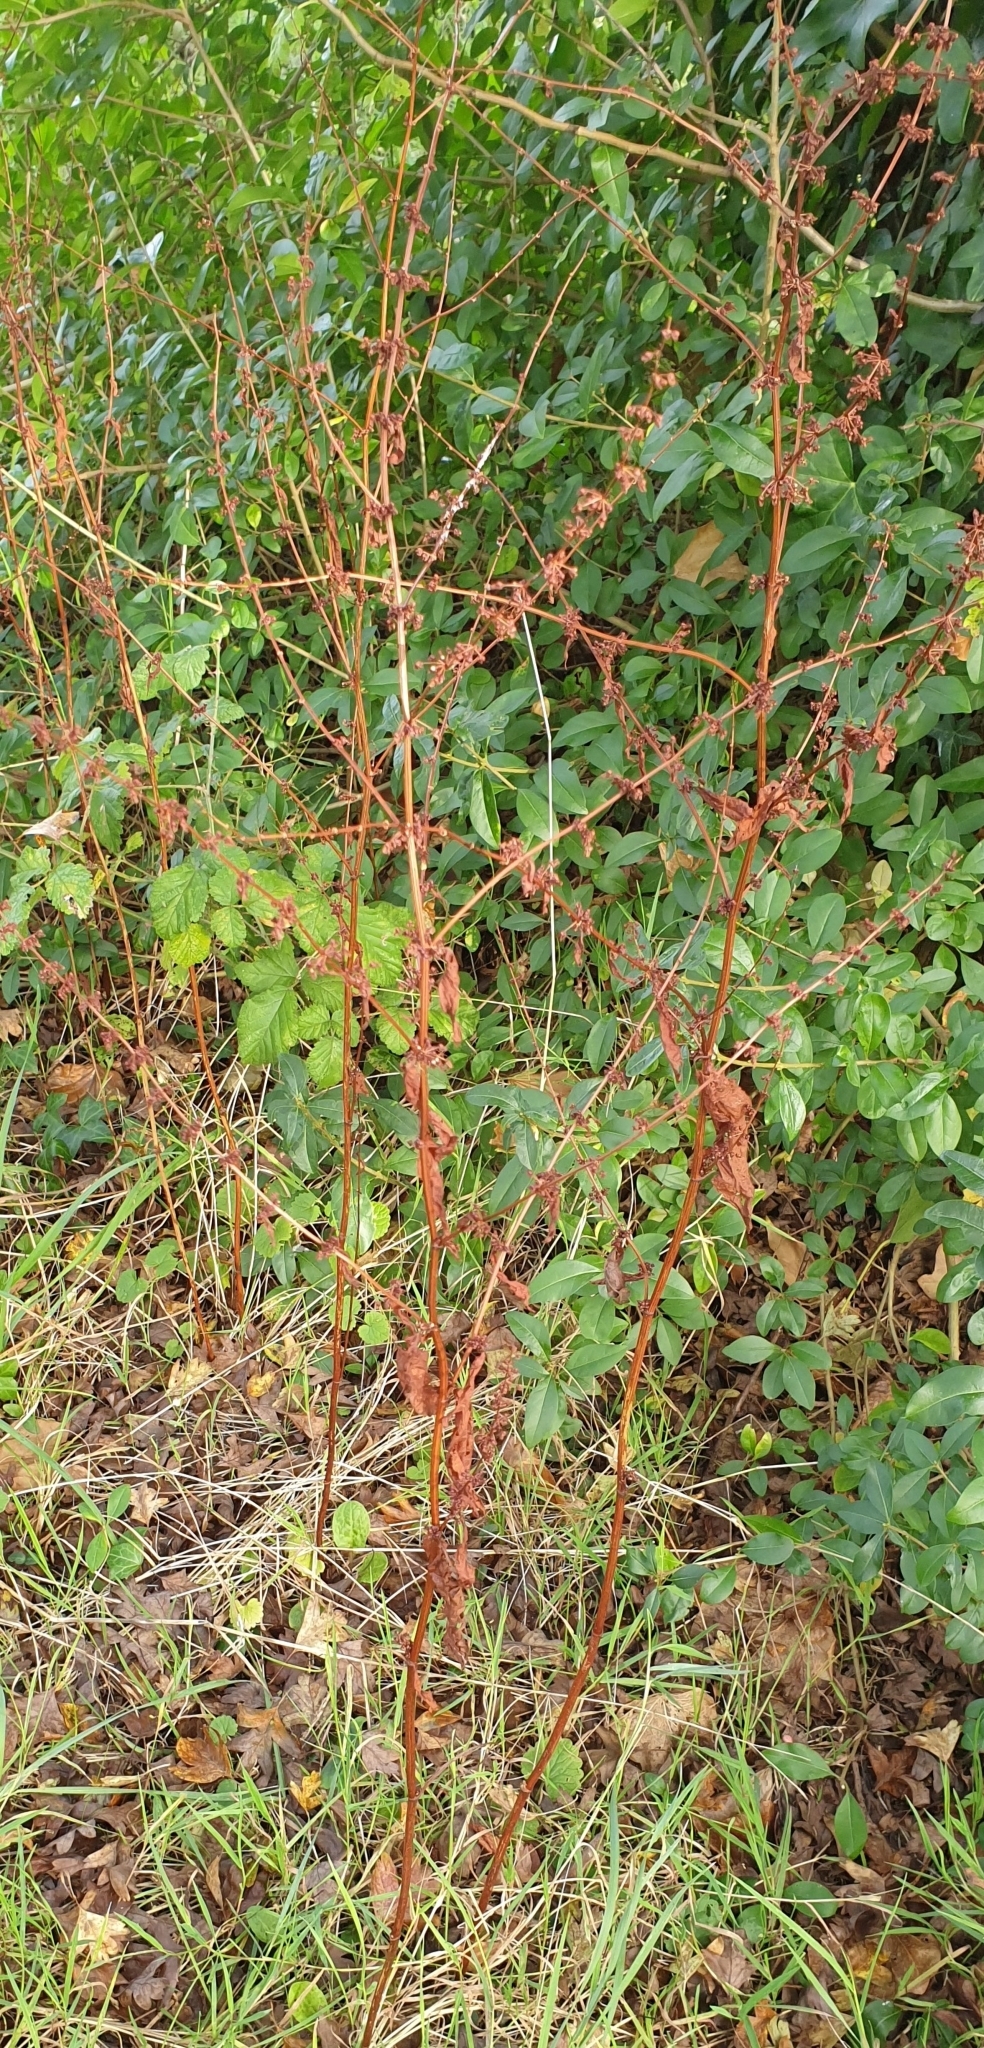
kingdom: Plantae
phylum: Tracheophyta
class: Magnoliopsida
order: Caryophyllales
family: Polygonaceae
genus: Rumex
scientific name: Rumex sanguineus
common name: Wood dock
